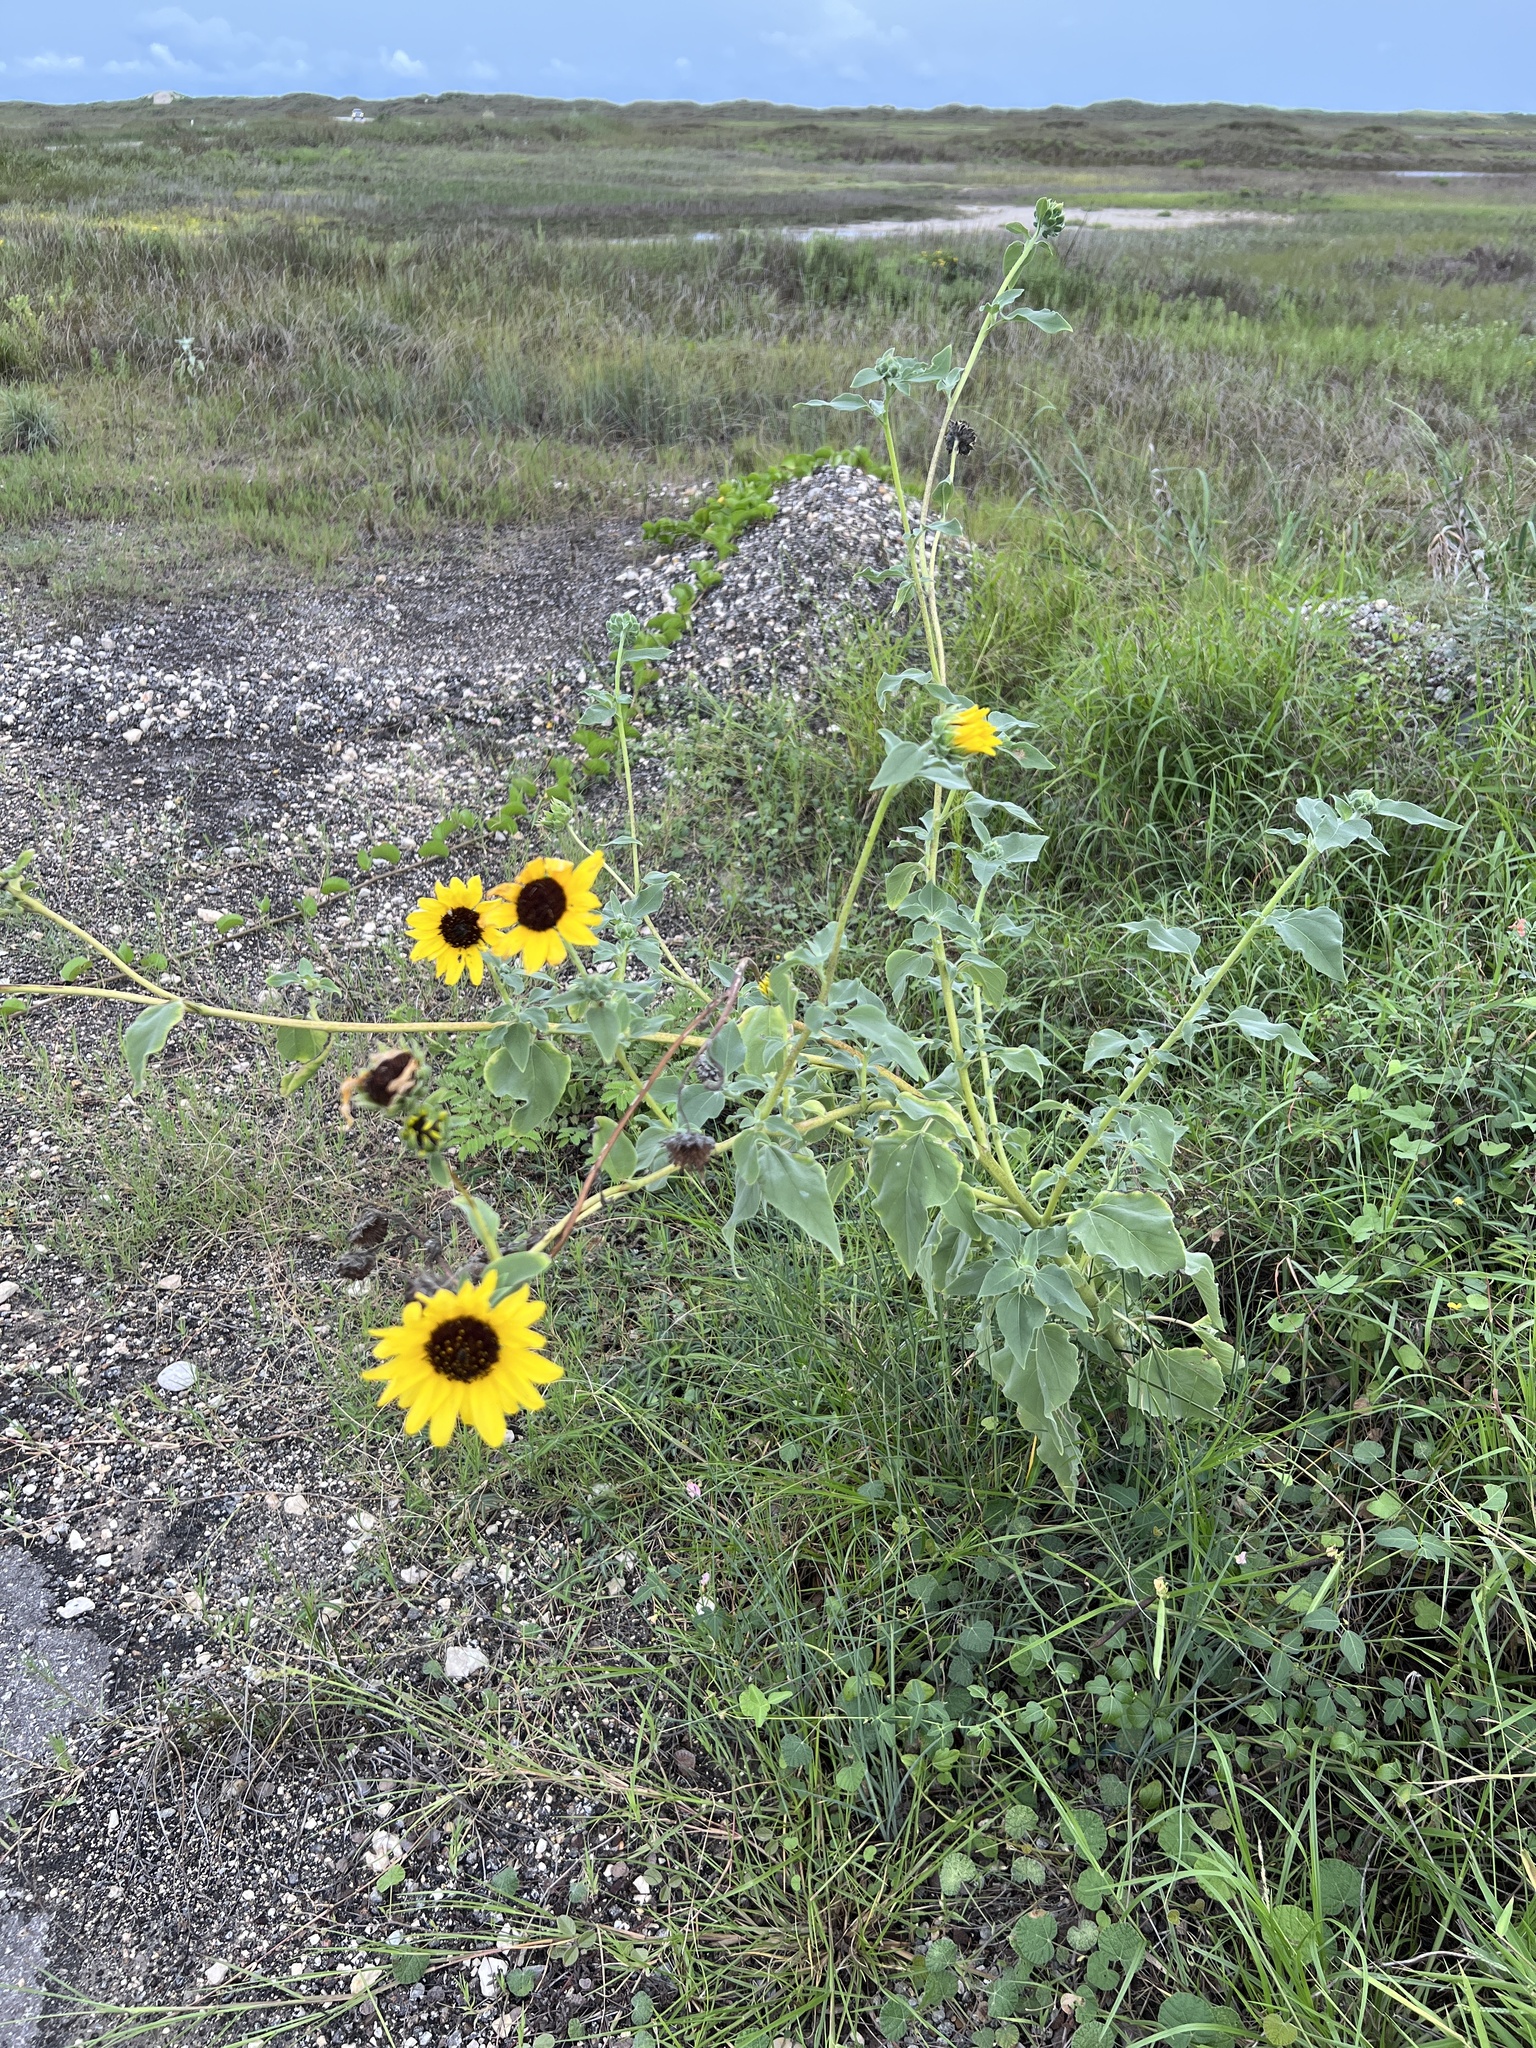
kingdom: Plantae
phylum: Tracheophyta
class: Magnoliopsida
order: Asterales
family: Asteraceae
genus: Helianthus
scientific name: Helianthus annuus
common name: Sunflower
